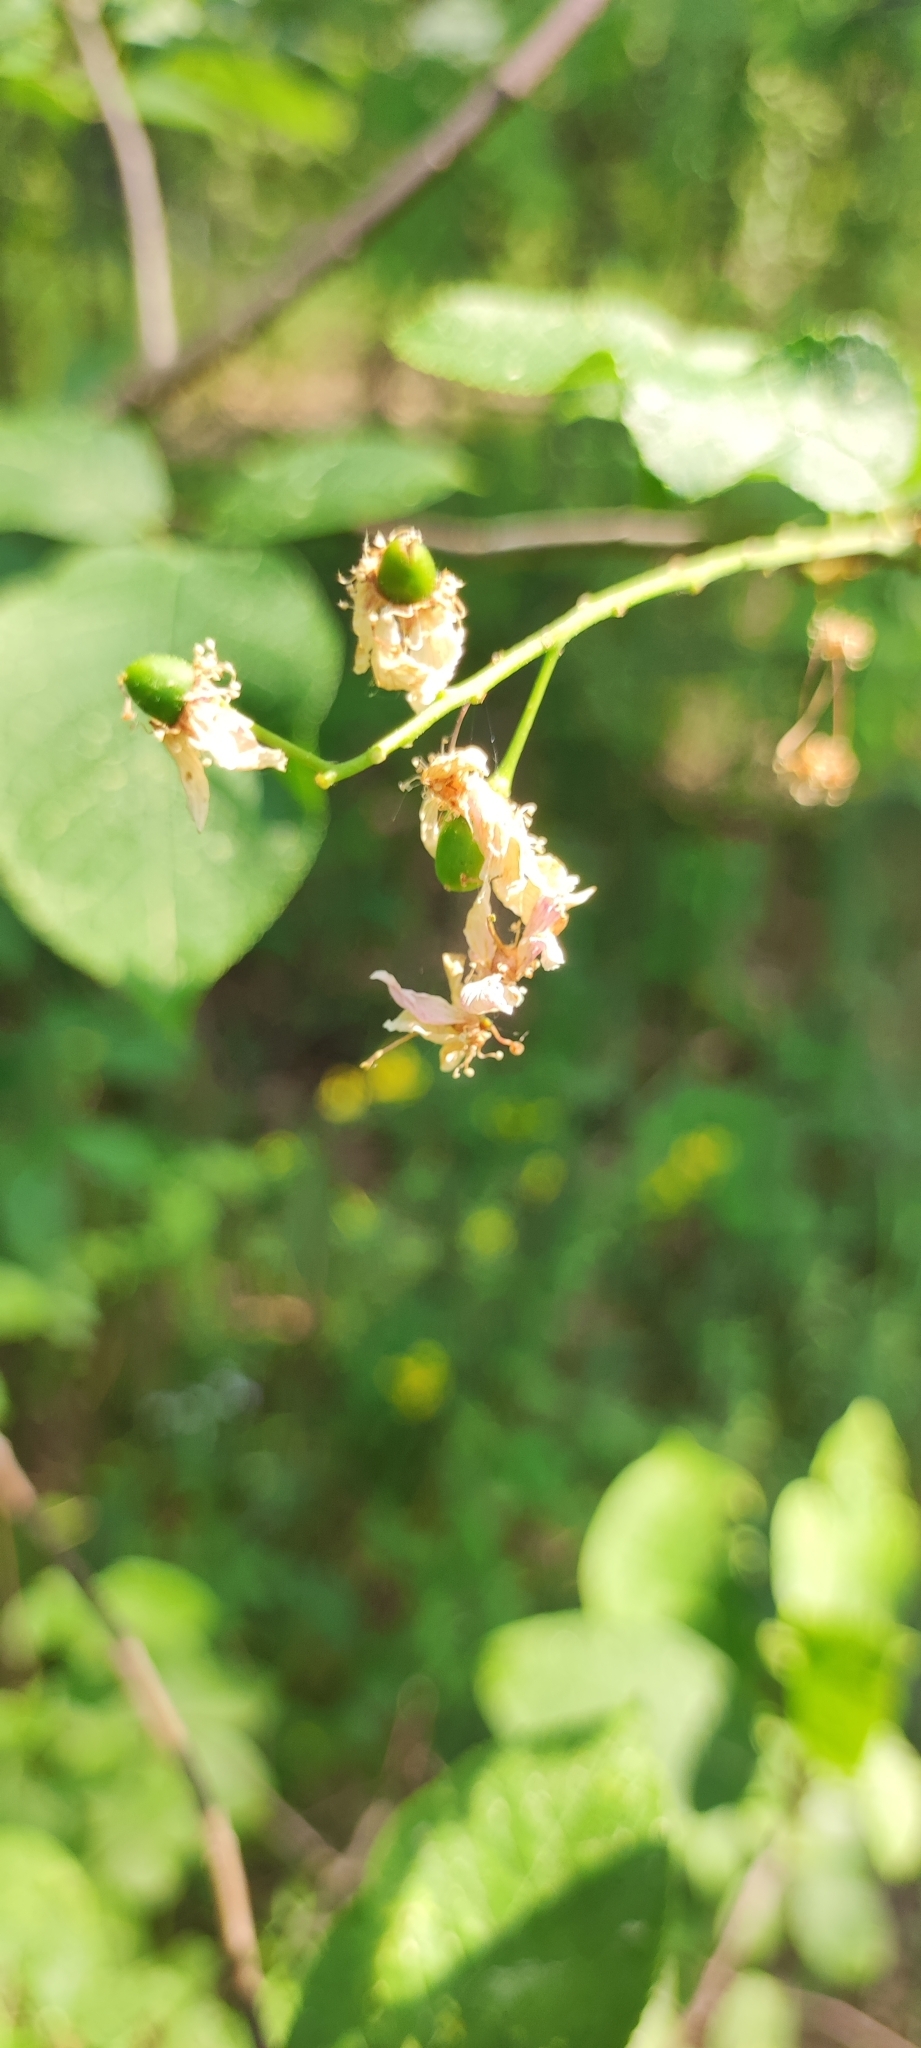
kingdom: Plantae
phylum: Tracheophyta
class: Magnoliopsida
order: Rosales
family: Rosaceae
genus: Prunus
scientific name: Prunus padus
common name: Bird cherry
